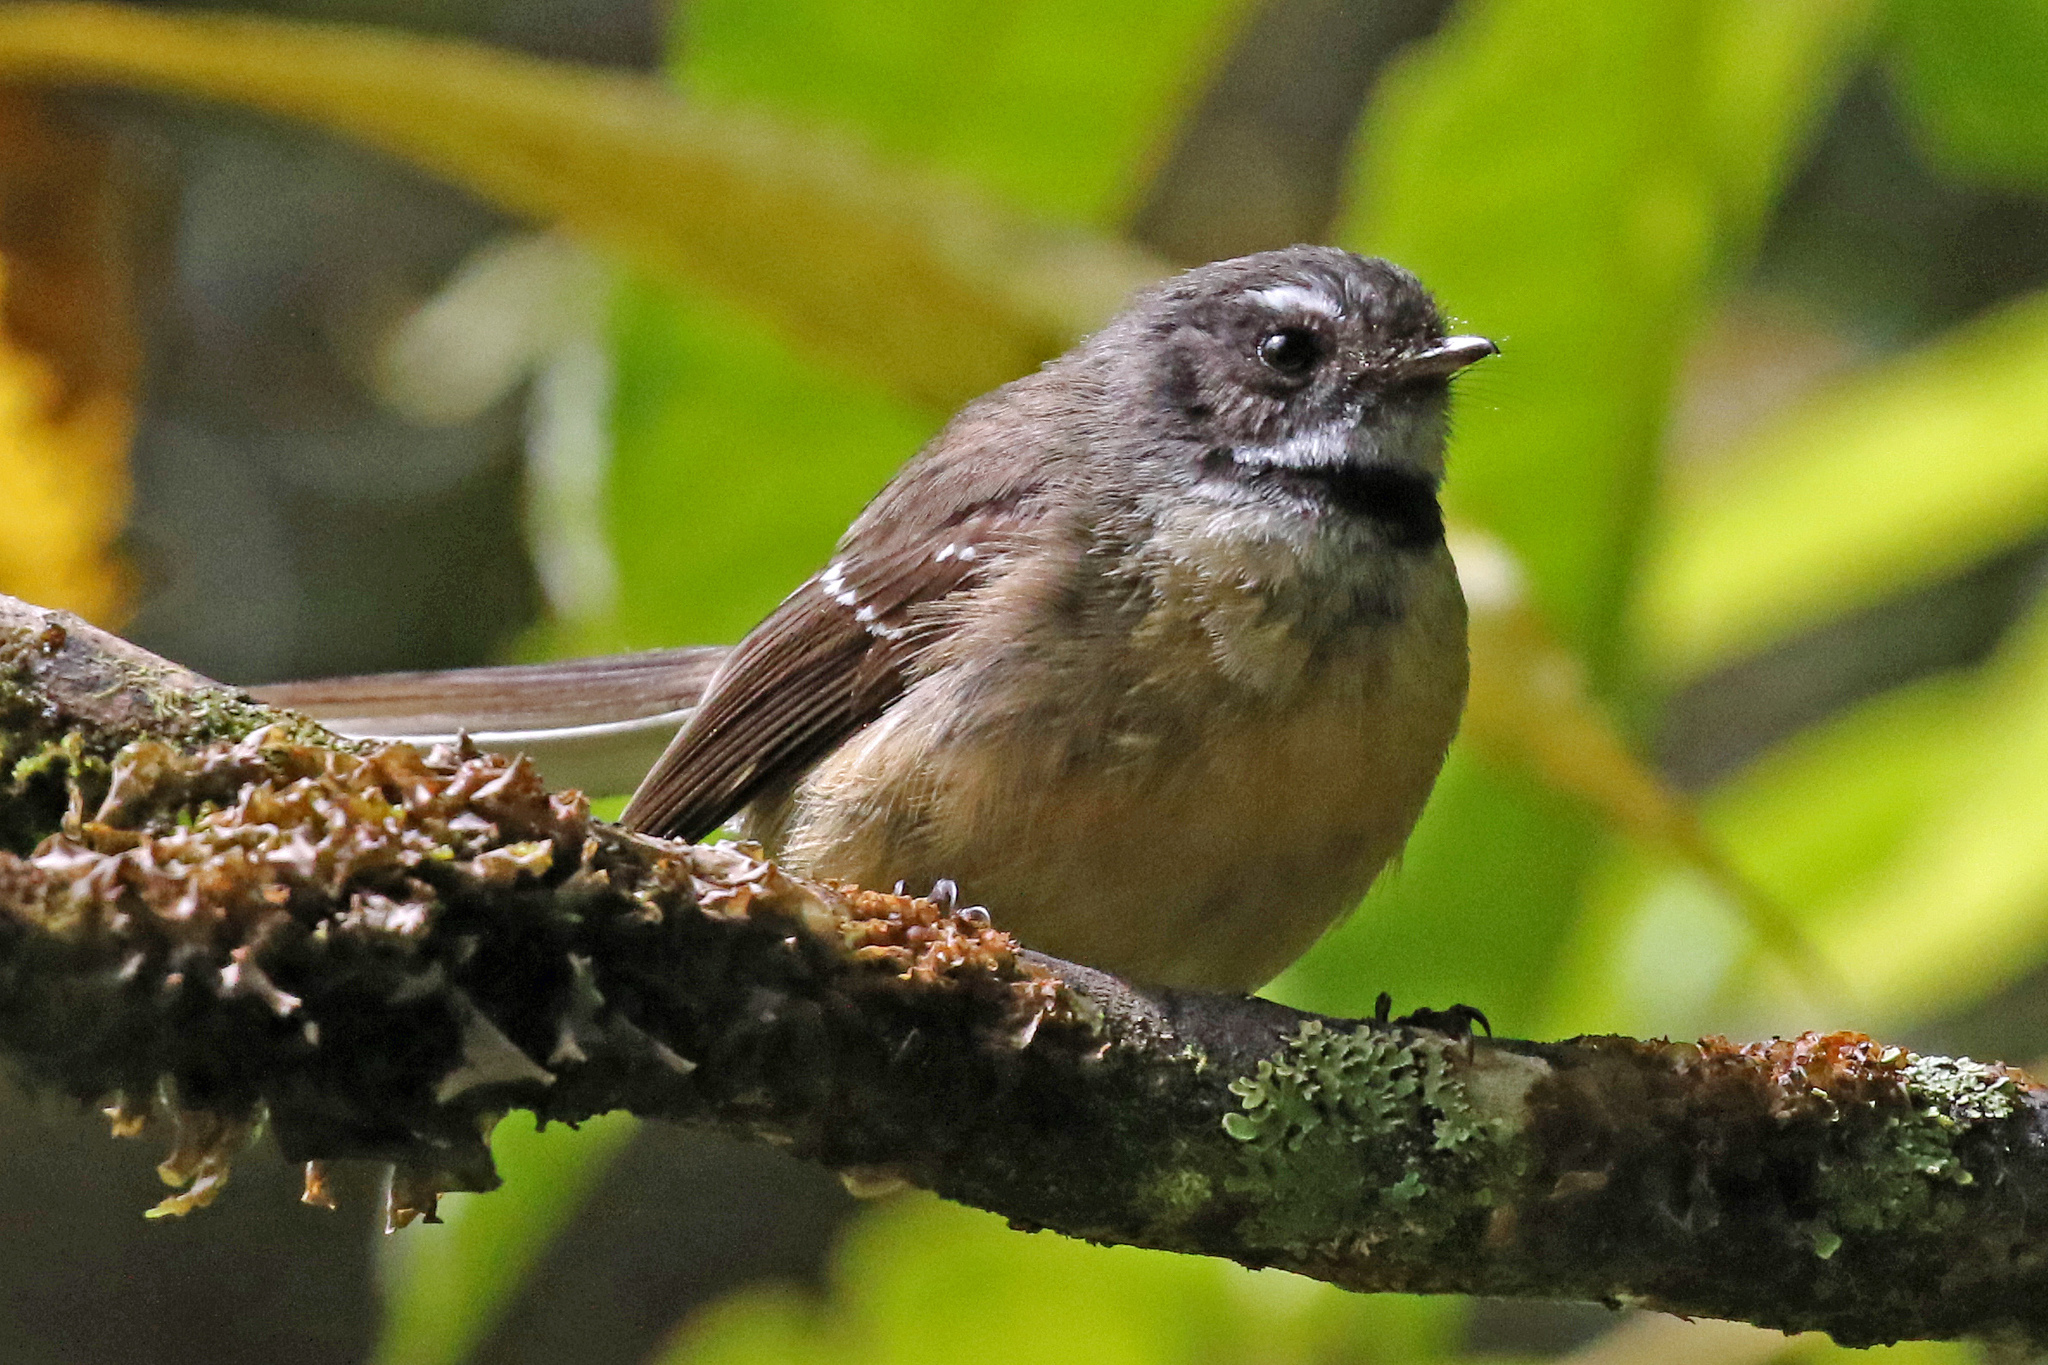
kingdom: Animalia
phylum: Chordata
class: Aves
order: Passeriformes
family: Rhipiduridae
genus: Rhipidura
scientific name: Rhipidura fuliginosa
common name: New zealand fantail
